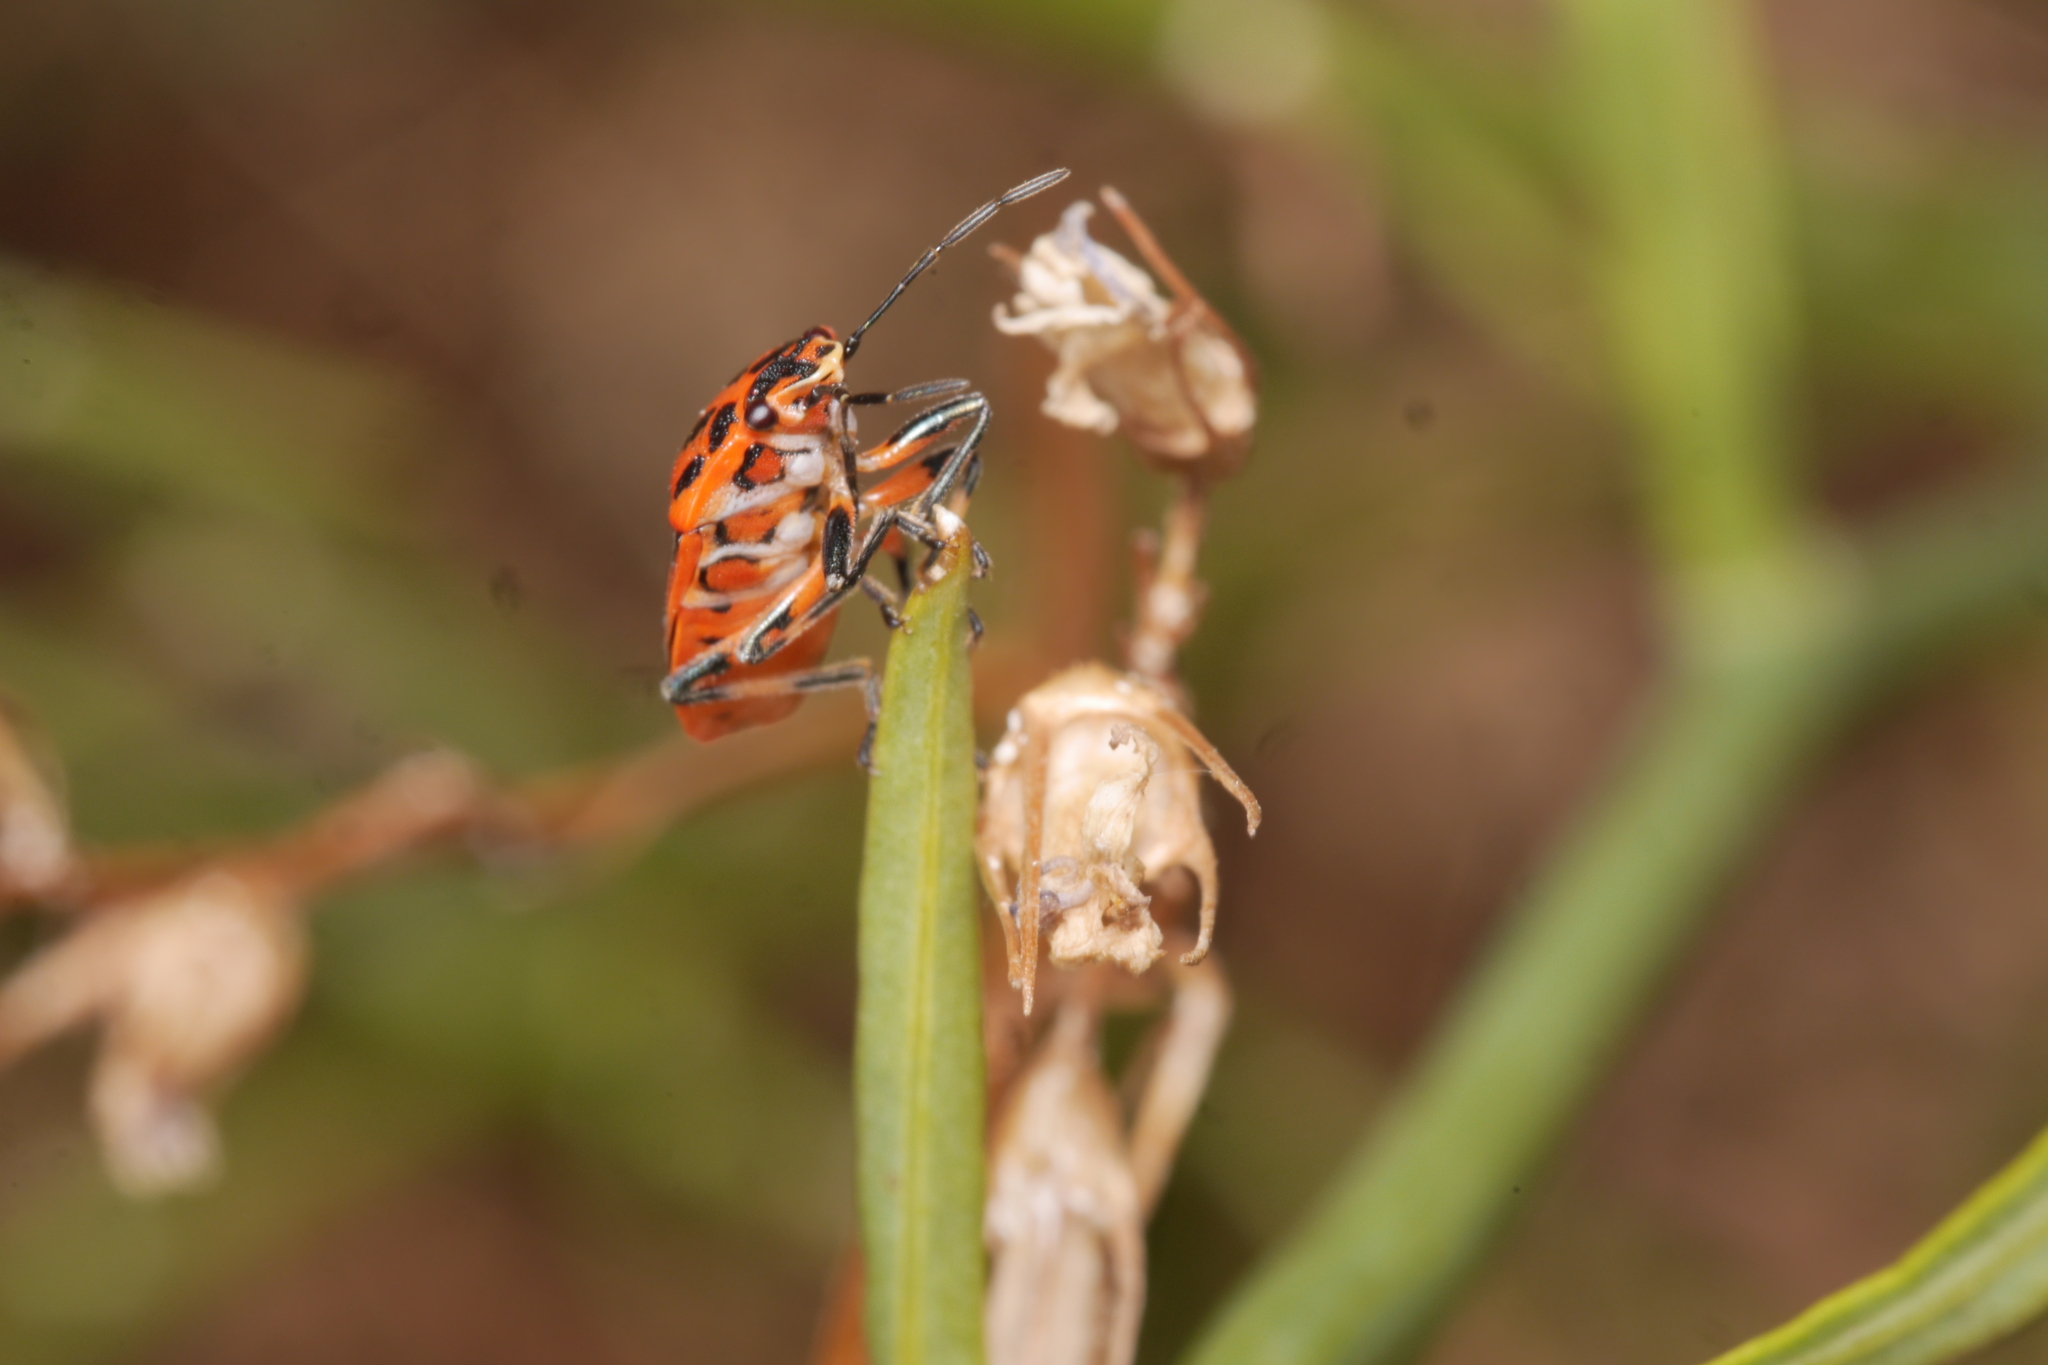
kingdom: Animalia
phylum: Arthropoda
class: Insecta
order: Hemiptera
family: Pentatomidae
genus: Eurydema
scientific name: Eurydema ornata
